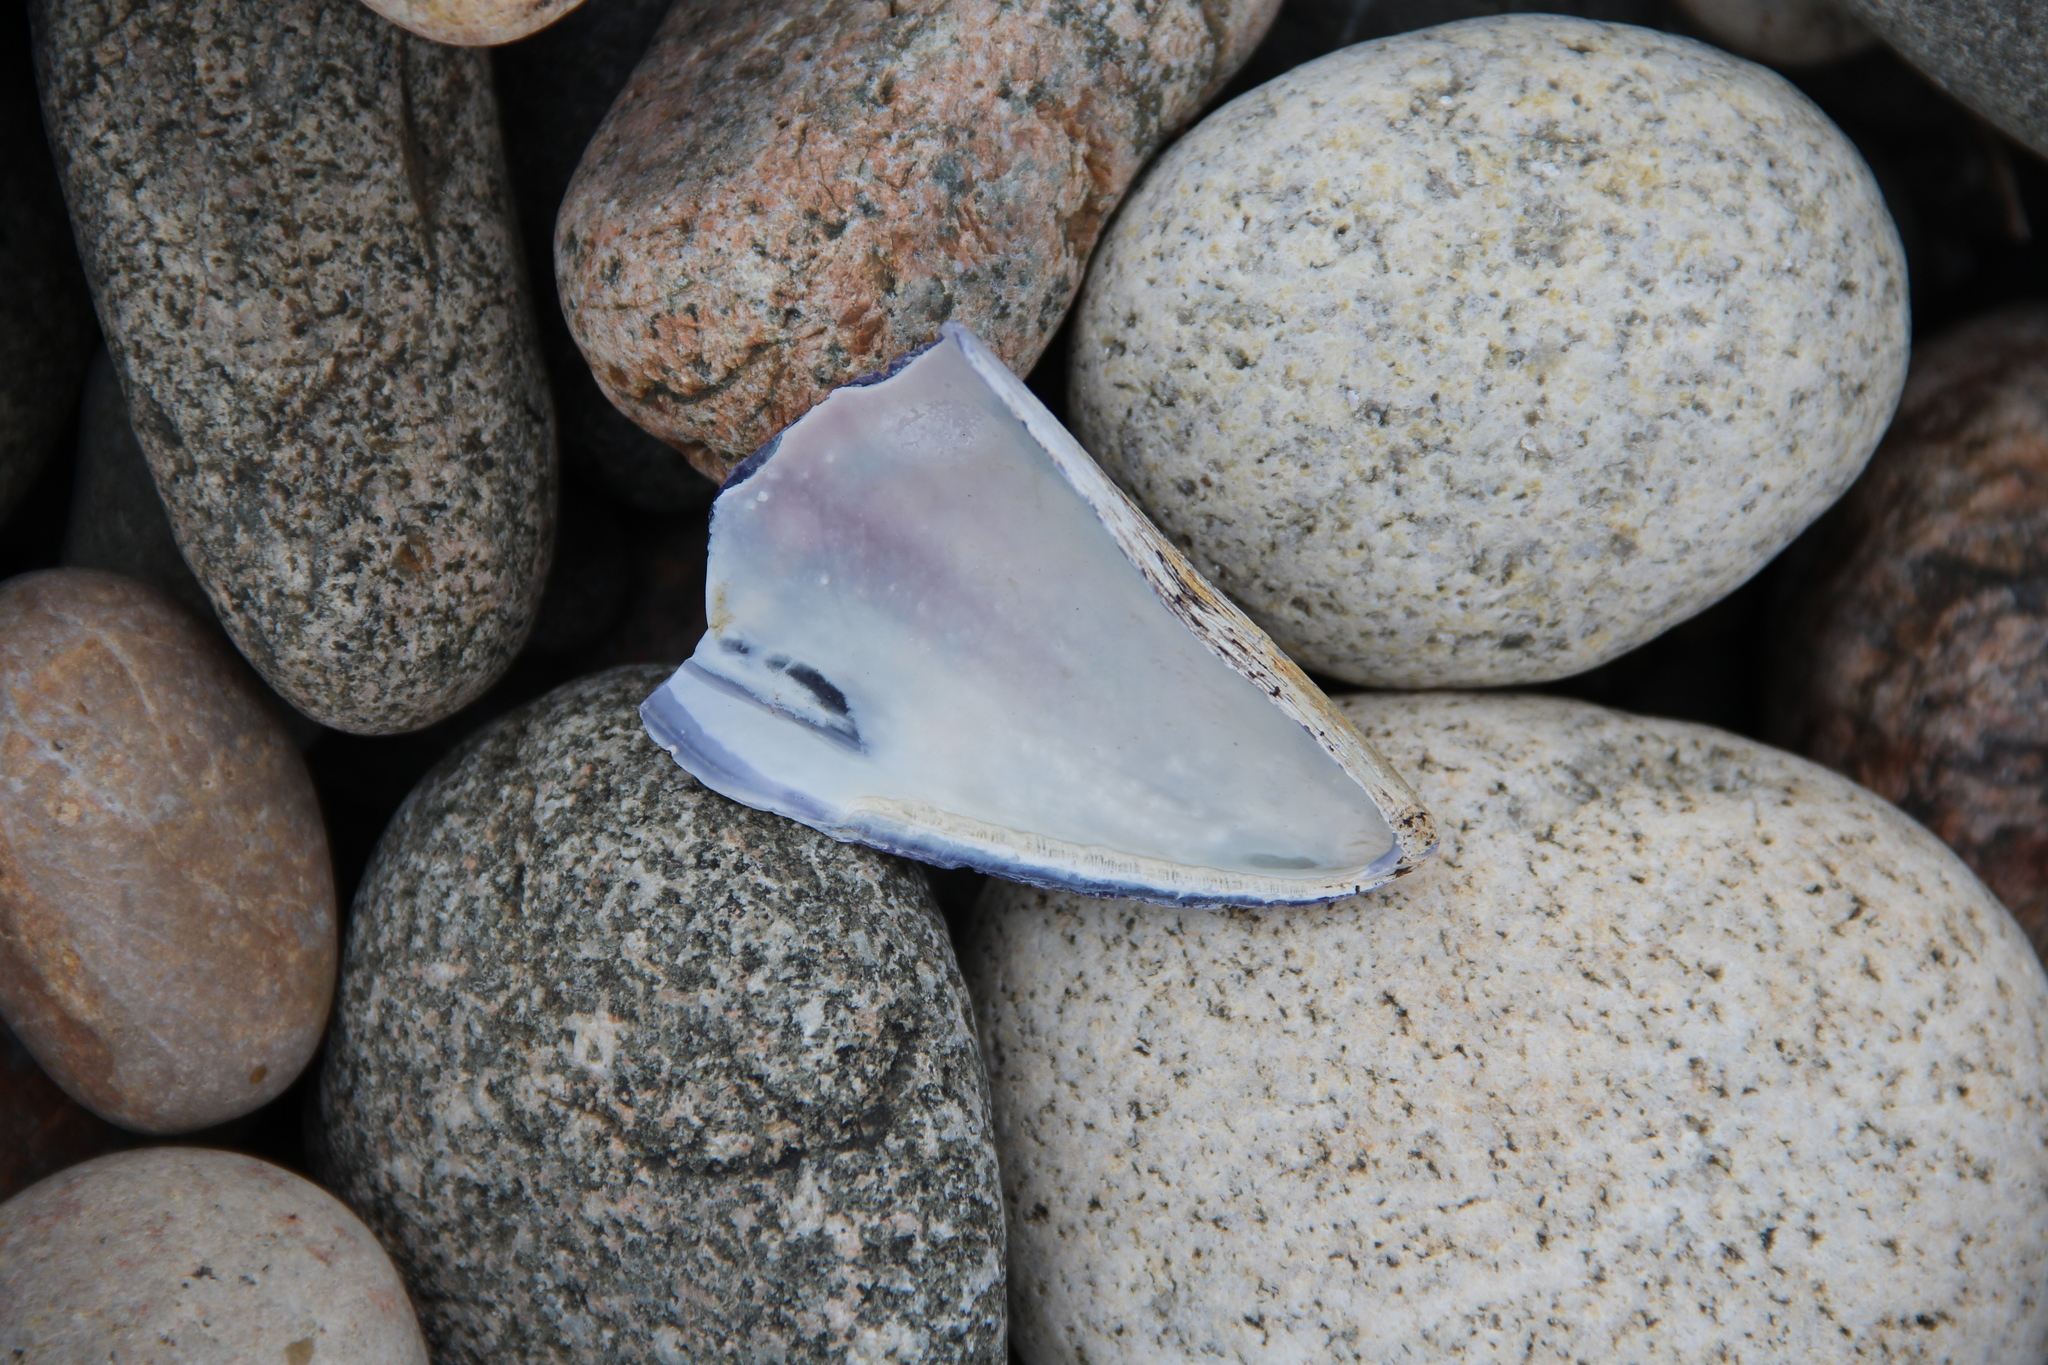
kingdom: Animalia
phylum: Mollusca
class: Bivalvia
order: Mytilida
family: Mytilidae
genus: Mytilus
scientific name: Mytilus edulis
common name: Blue mussel
